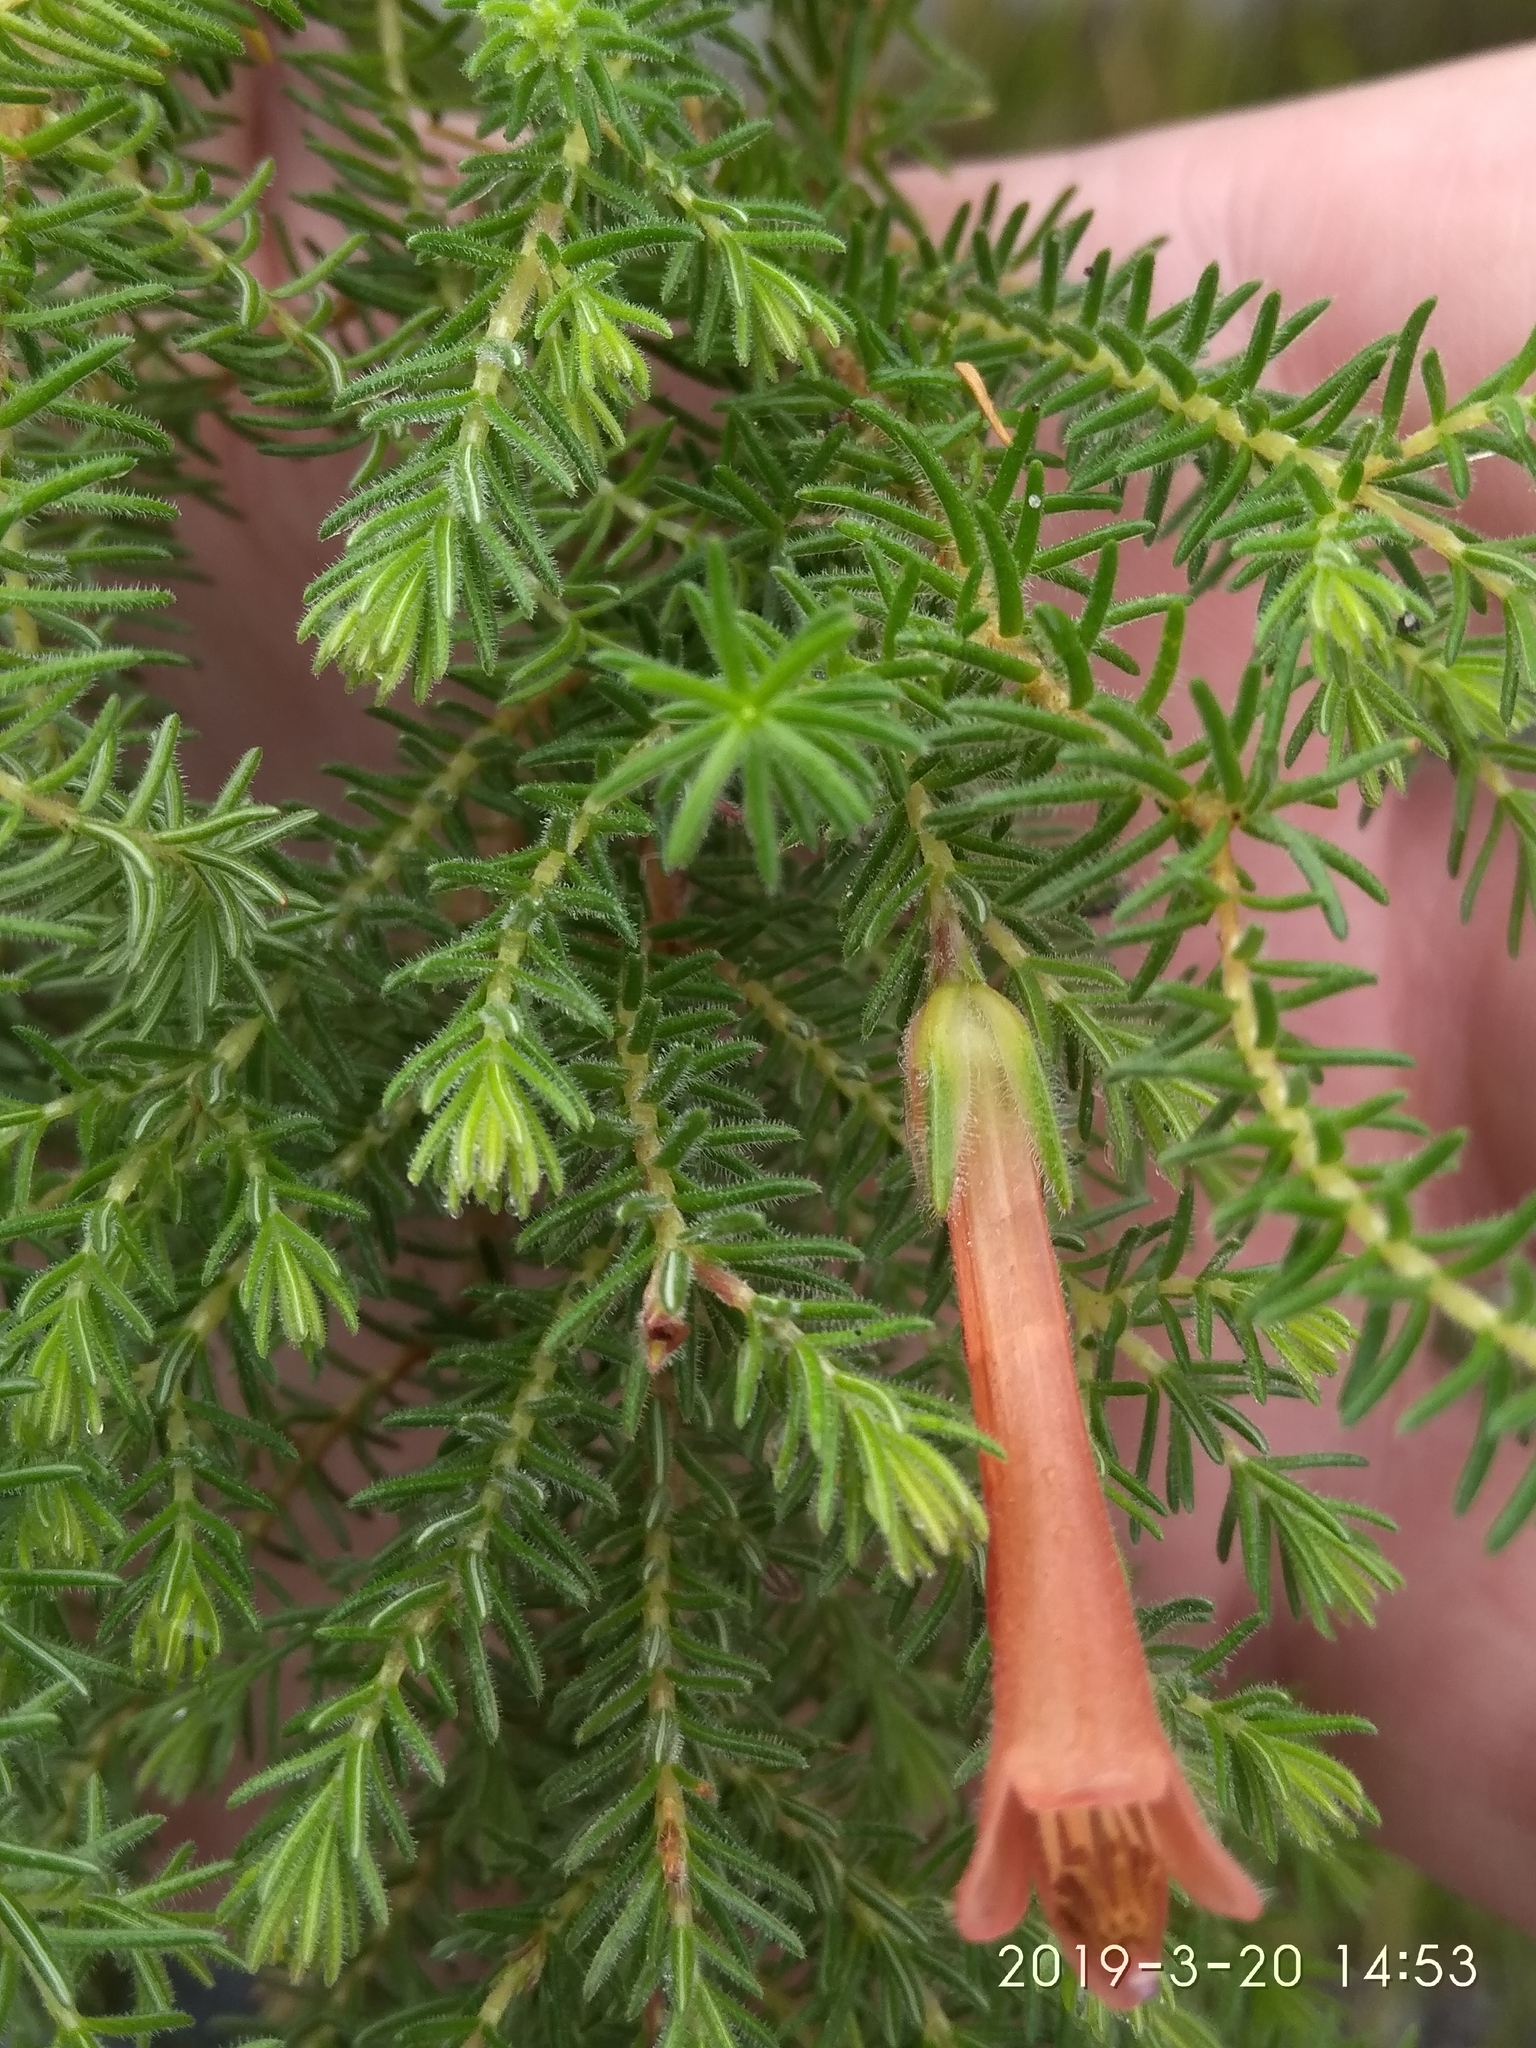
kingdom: Plantae
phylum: Tracheophyta
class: Magnoliopsida
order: Ericales
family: Ericaceae
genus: Erica
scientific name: Erica curviflora
